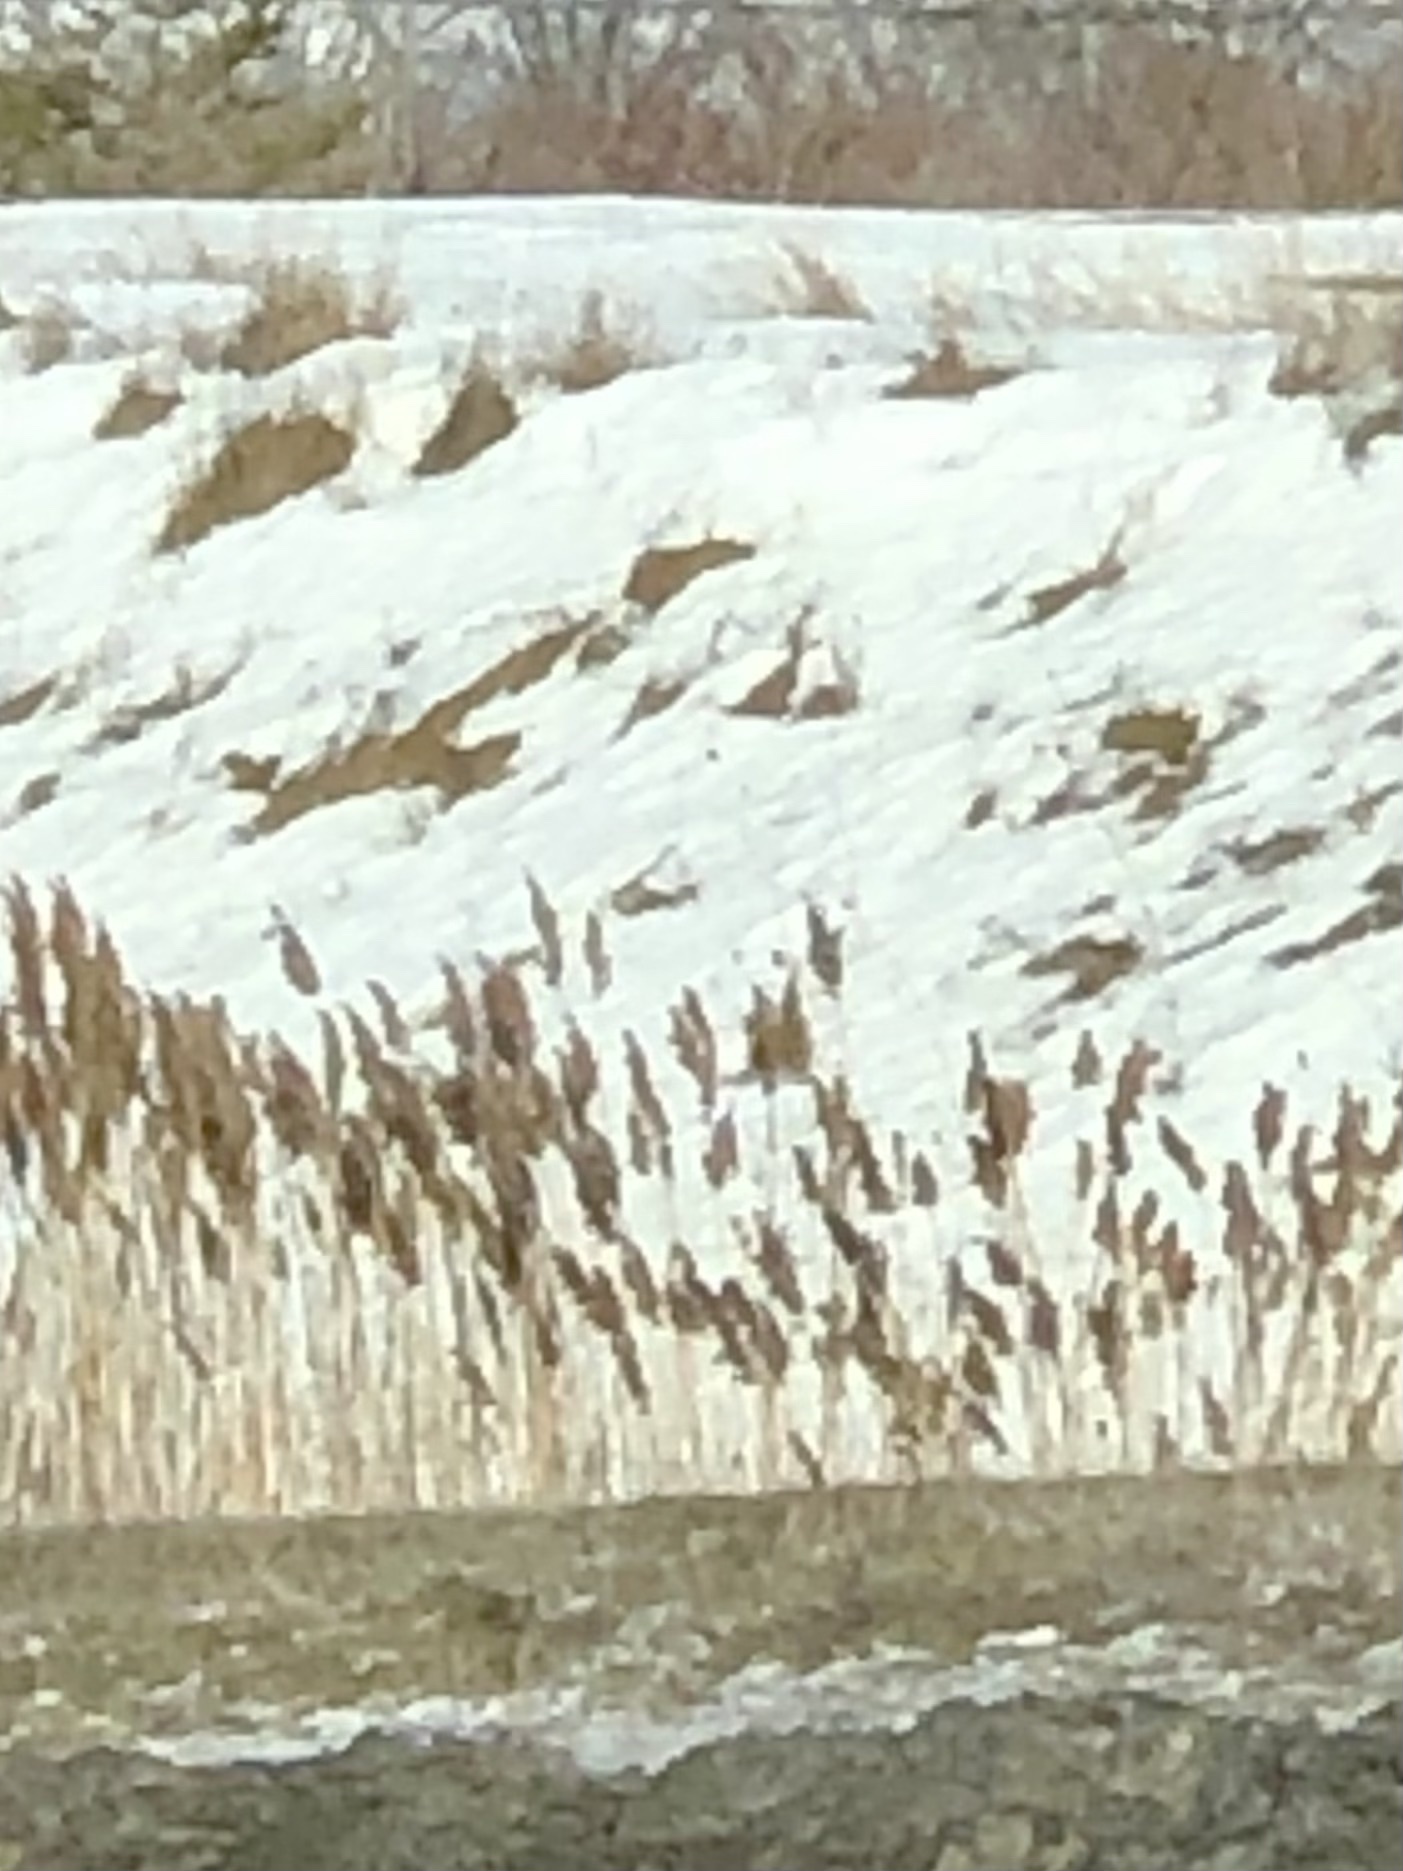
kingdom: Plantae
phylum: Tracheophyta
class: Liliopsida
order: Poales
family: Poaceae
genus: Phragmites
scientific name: Phragmites australis
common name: Common reed
